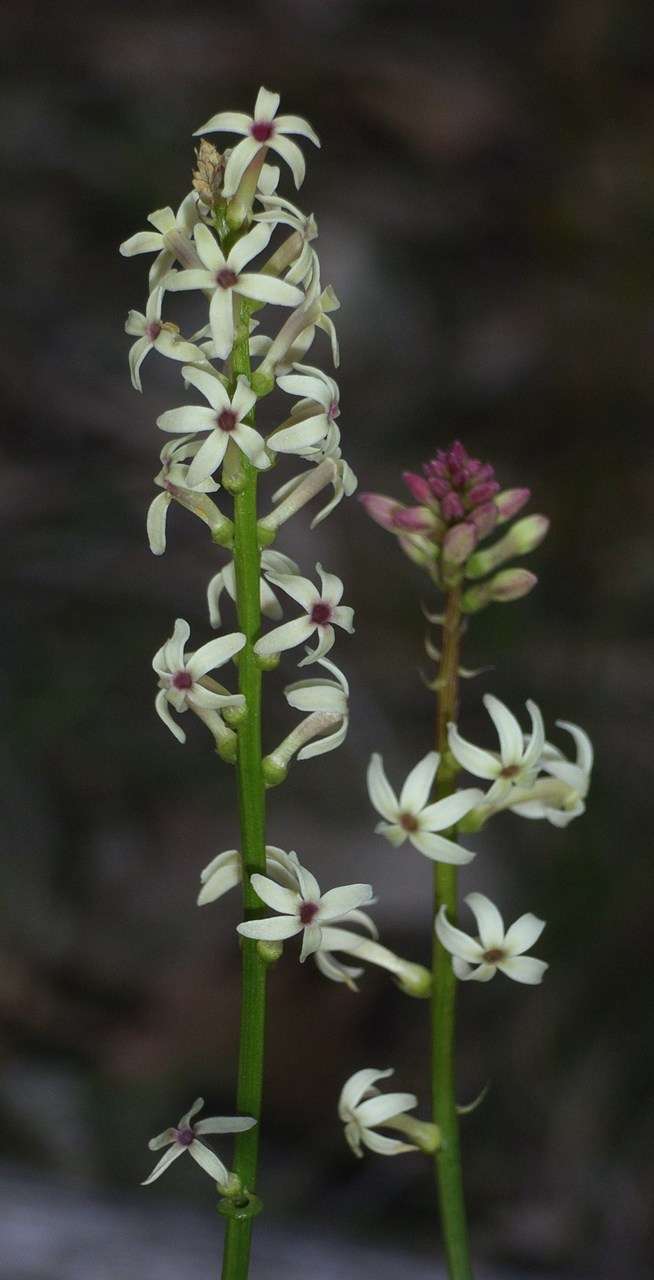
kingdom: Plantae
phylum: Tracheophyta
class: Magnoliopsida
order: Celastrales
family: Celastraceae
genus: Stackhousia
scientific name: Stackhousia monogyna
